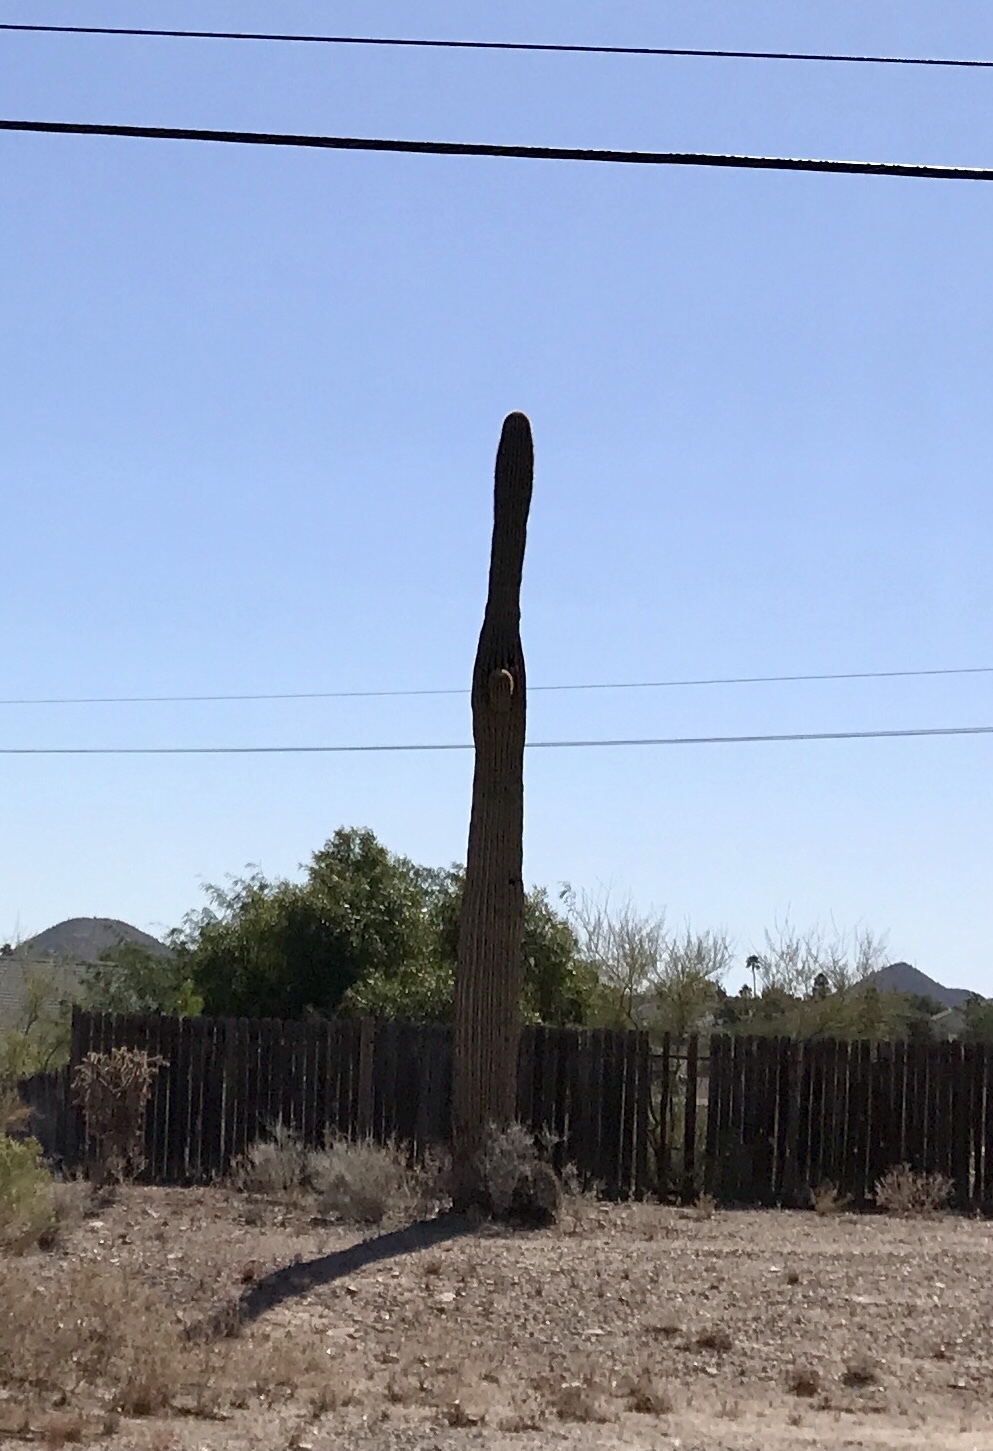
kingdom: Plantae
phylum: Tracheophyta
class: Magnoliopsida
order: Caryophyllales
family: Cactaceae
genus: Carnegiea
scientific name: Carnegiea gigantea
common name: Saguaro
